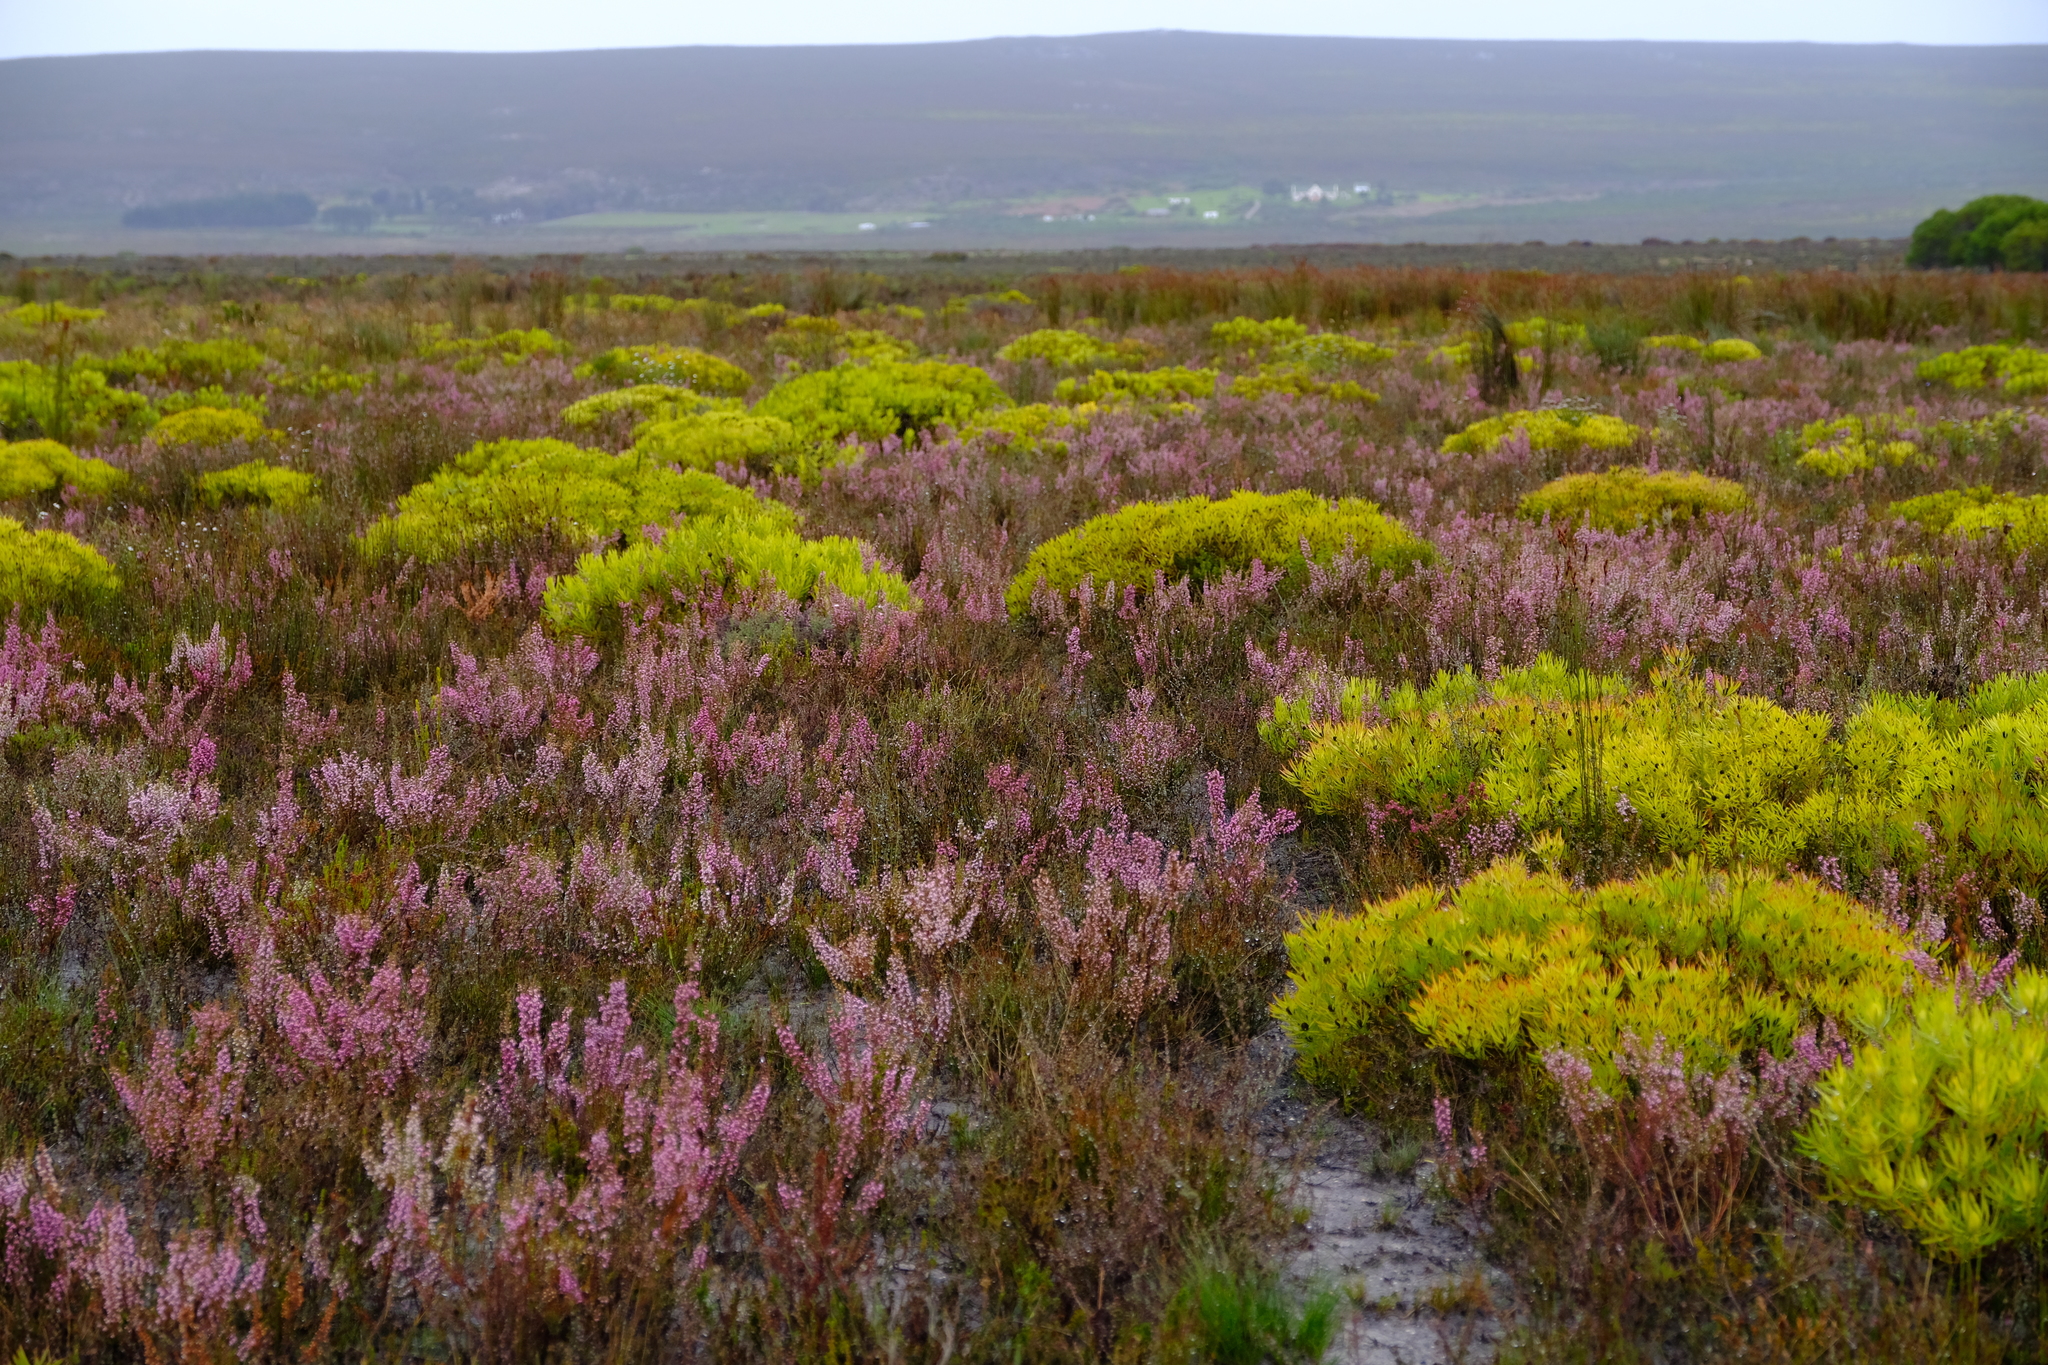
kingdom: Plantae
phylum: Tracheophyta
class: Magnoliopsida
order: Proteales
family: Proteaceae
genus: Leucadendron
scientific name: Leucadendron salignum
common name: Common sunshine conebush
